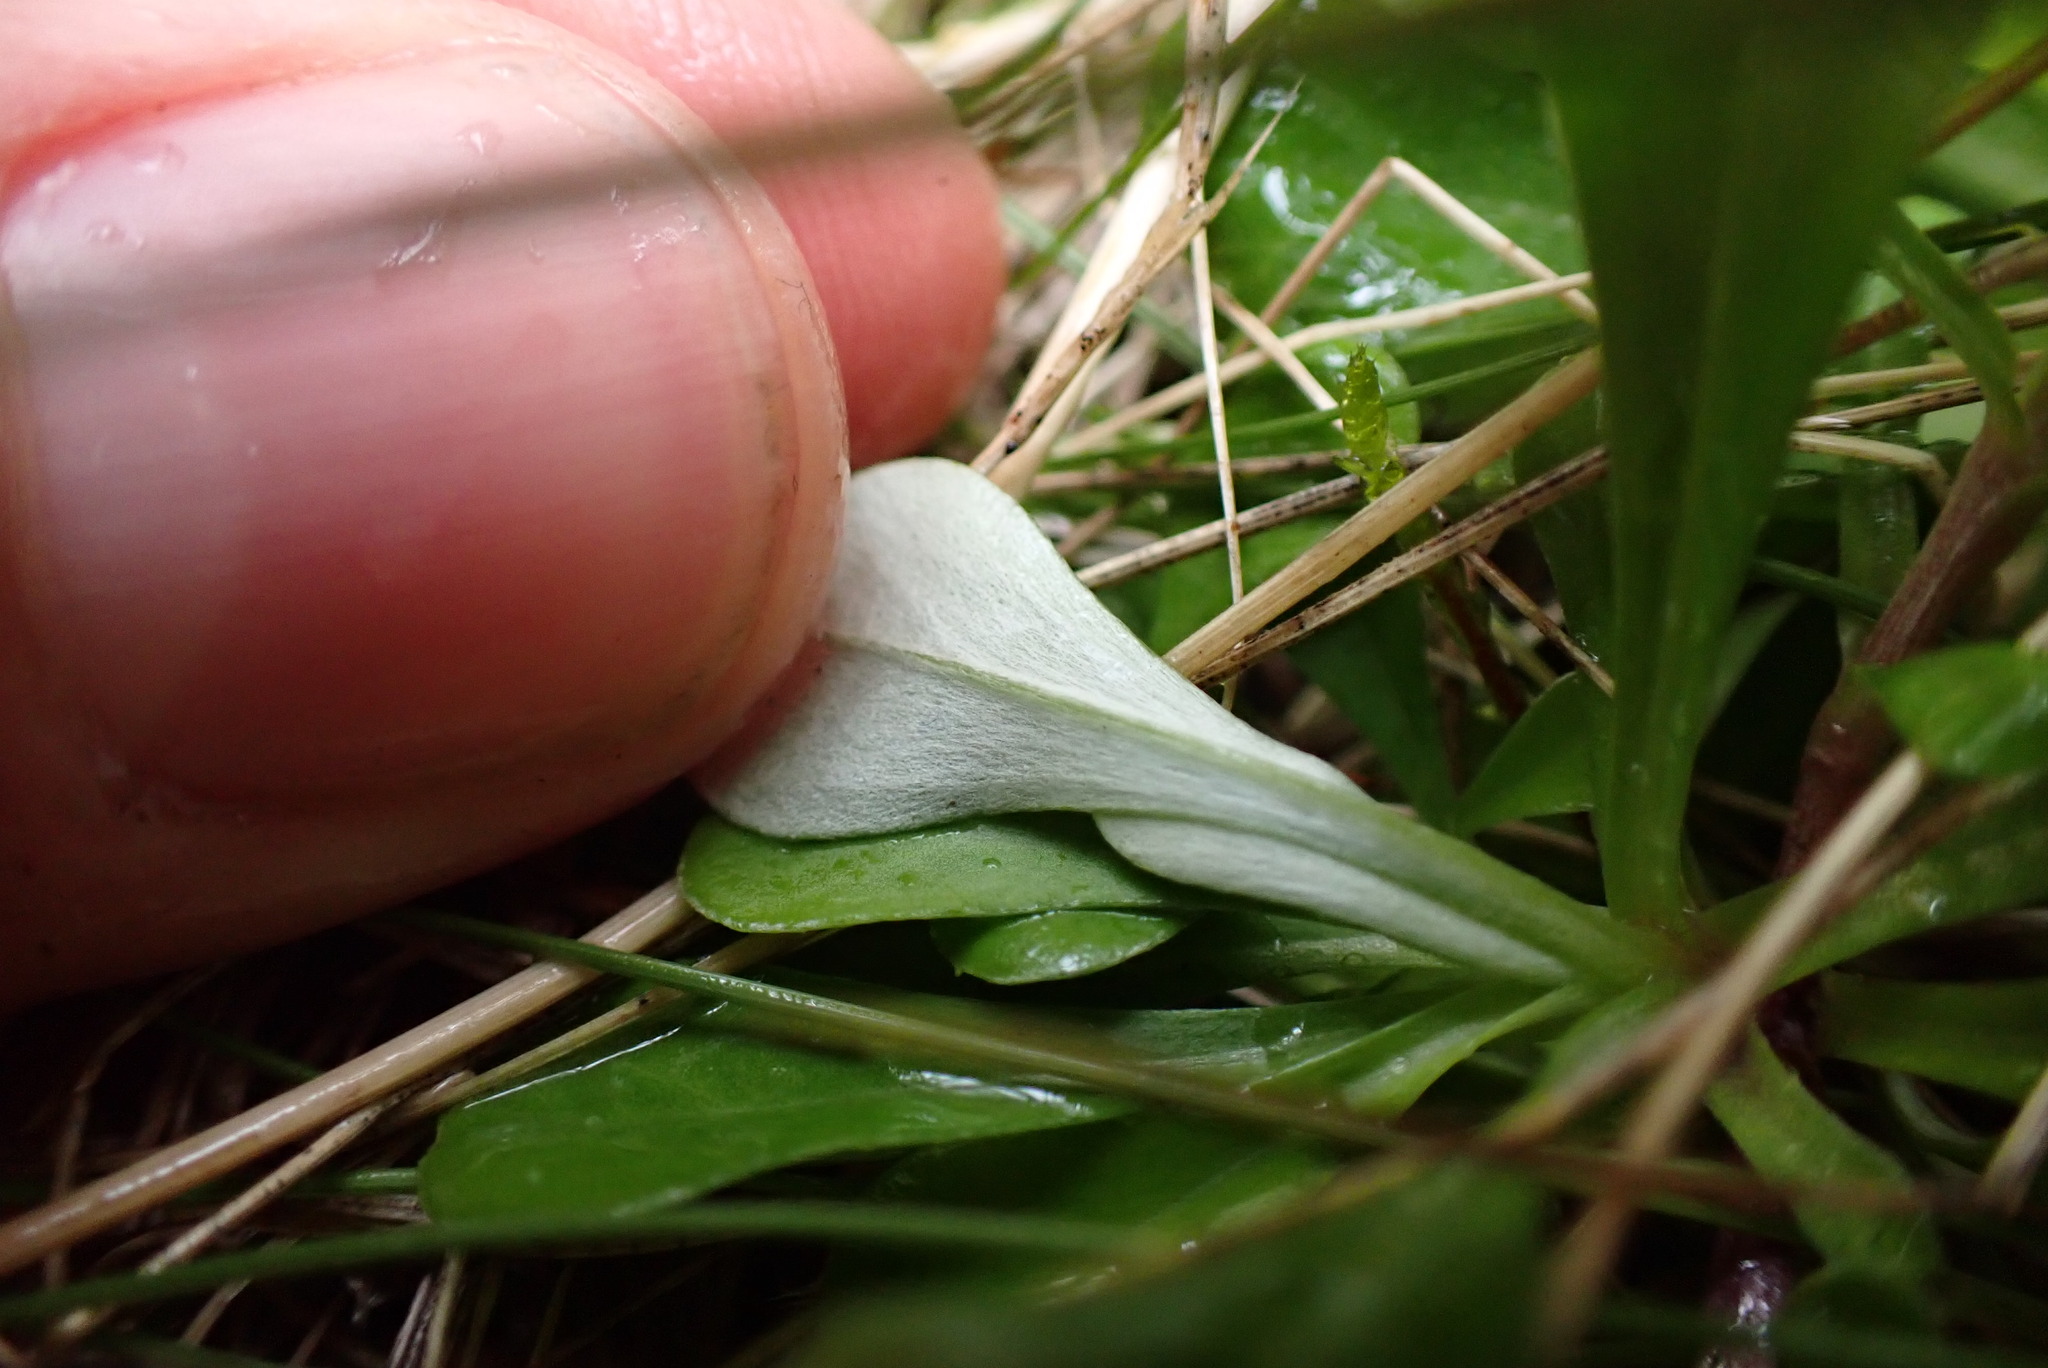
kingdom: Plantae
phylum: Tracheophyta
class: Magnoliopsida
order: Asterales
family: Asteraceae
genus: Antennaria
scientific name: Antennaria dioica
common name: Mountain everlasting
